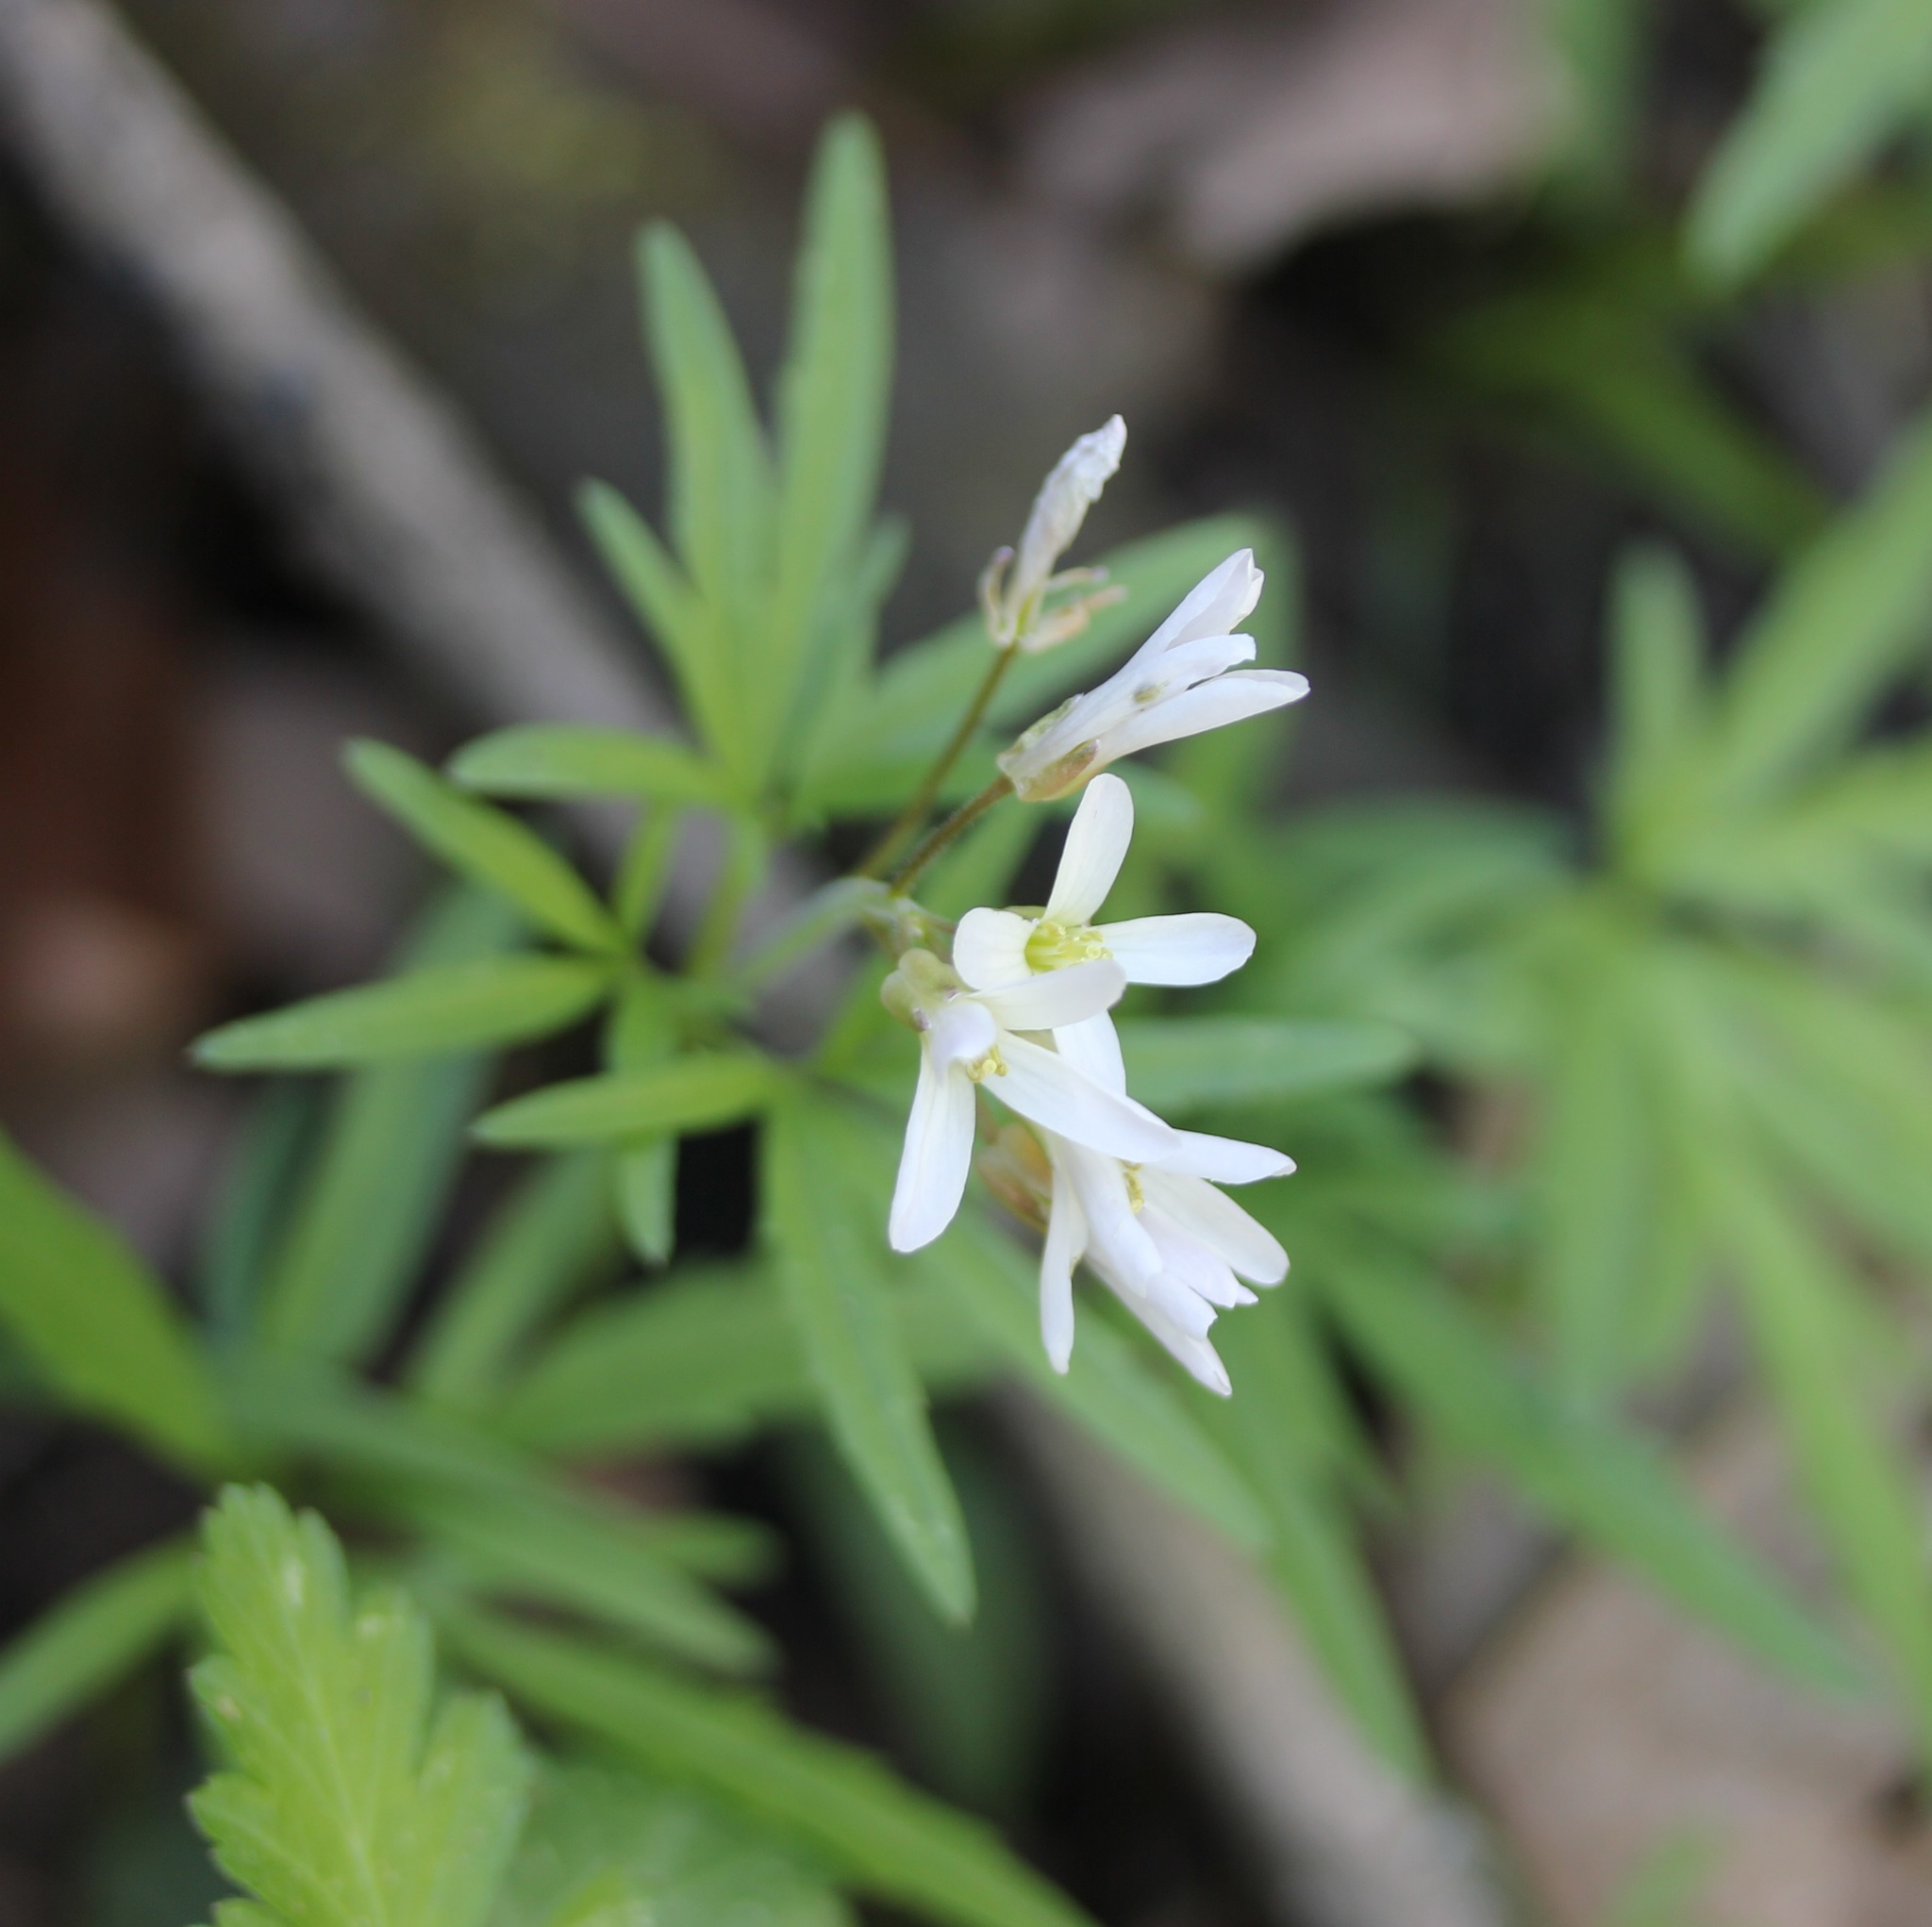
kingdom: Plantae
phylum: Tracheophyta
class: Magnoliopsida
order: Brassicales
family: Brassicaceae
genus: Cardamine
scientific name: Cardamine concatenata
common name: Cut-leaf toothcup
